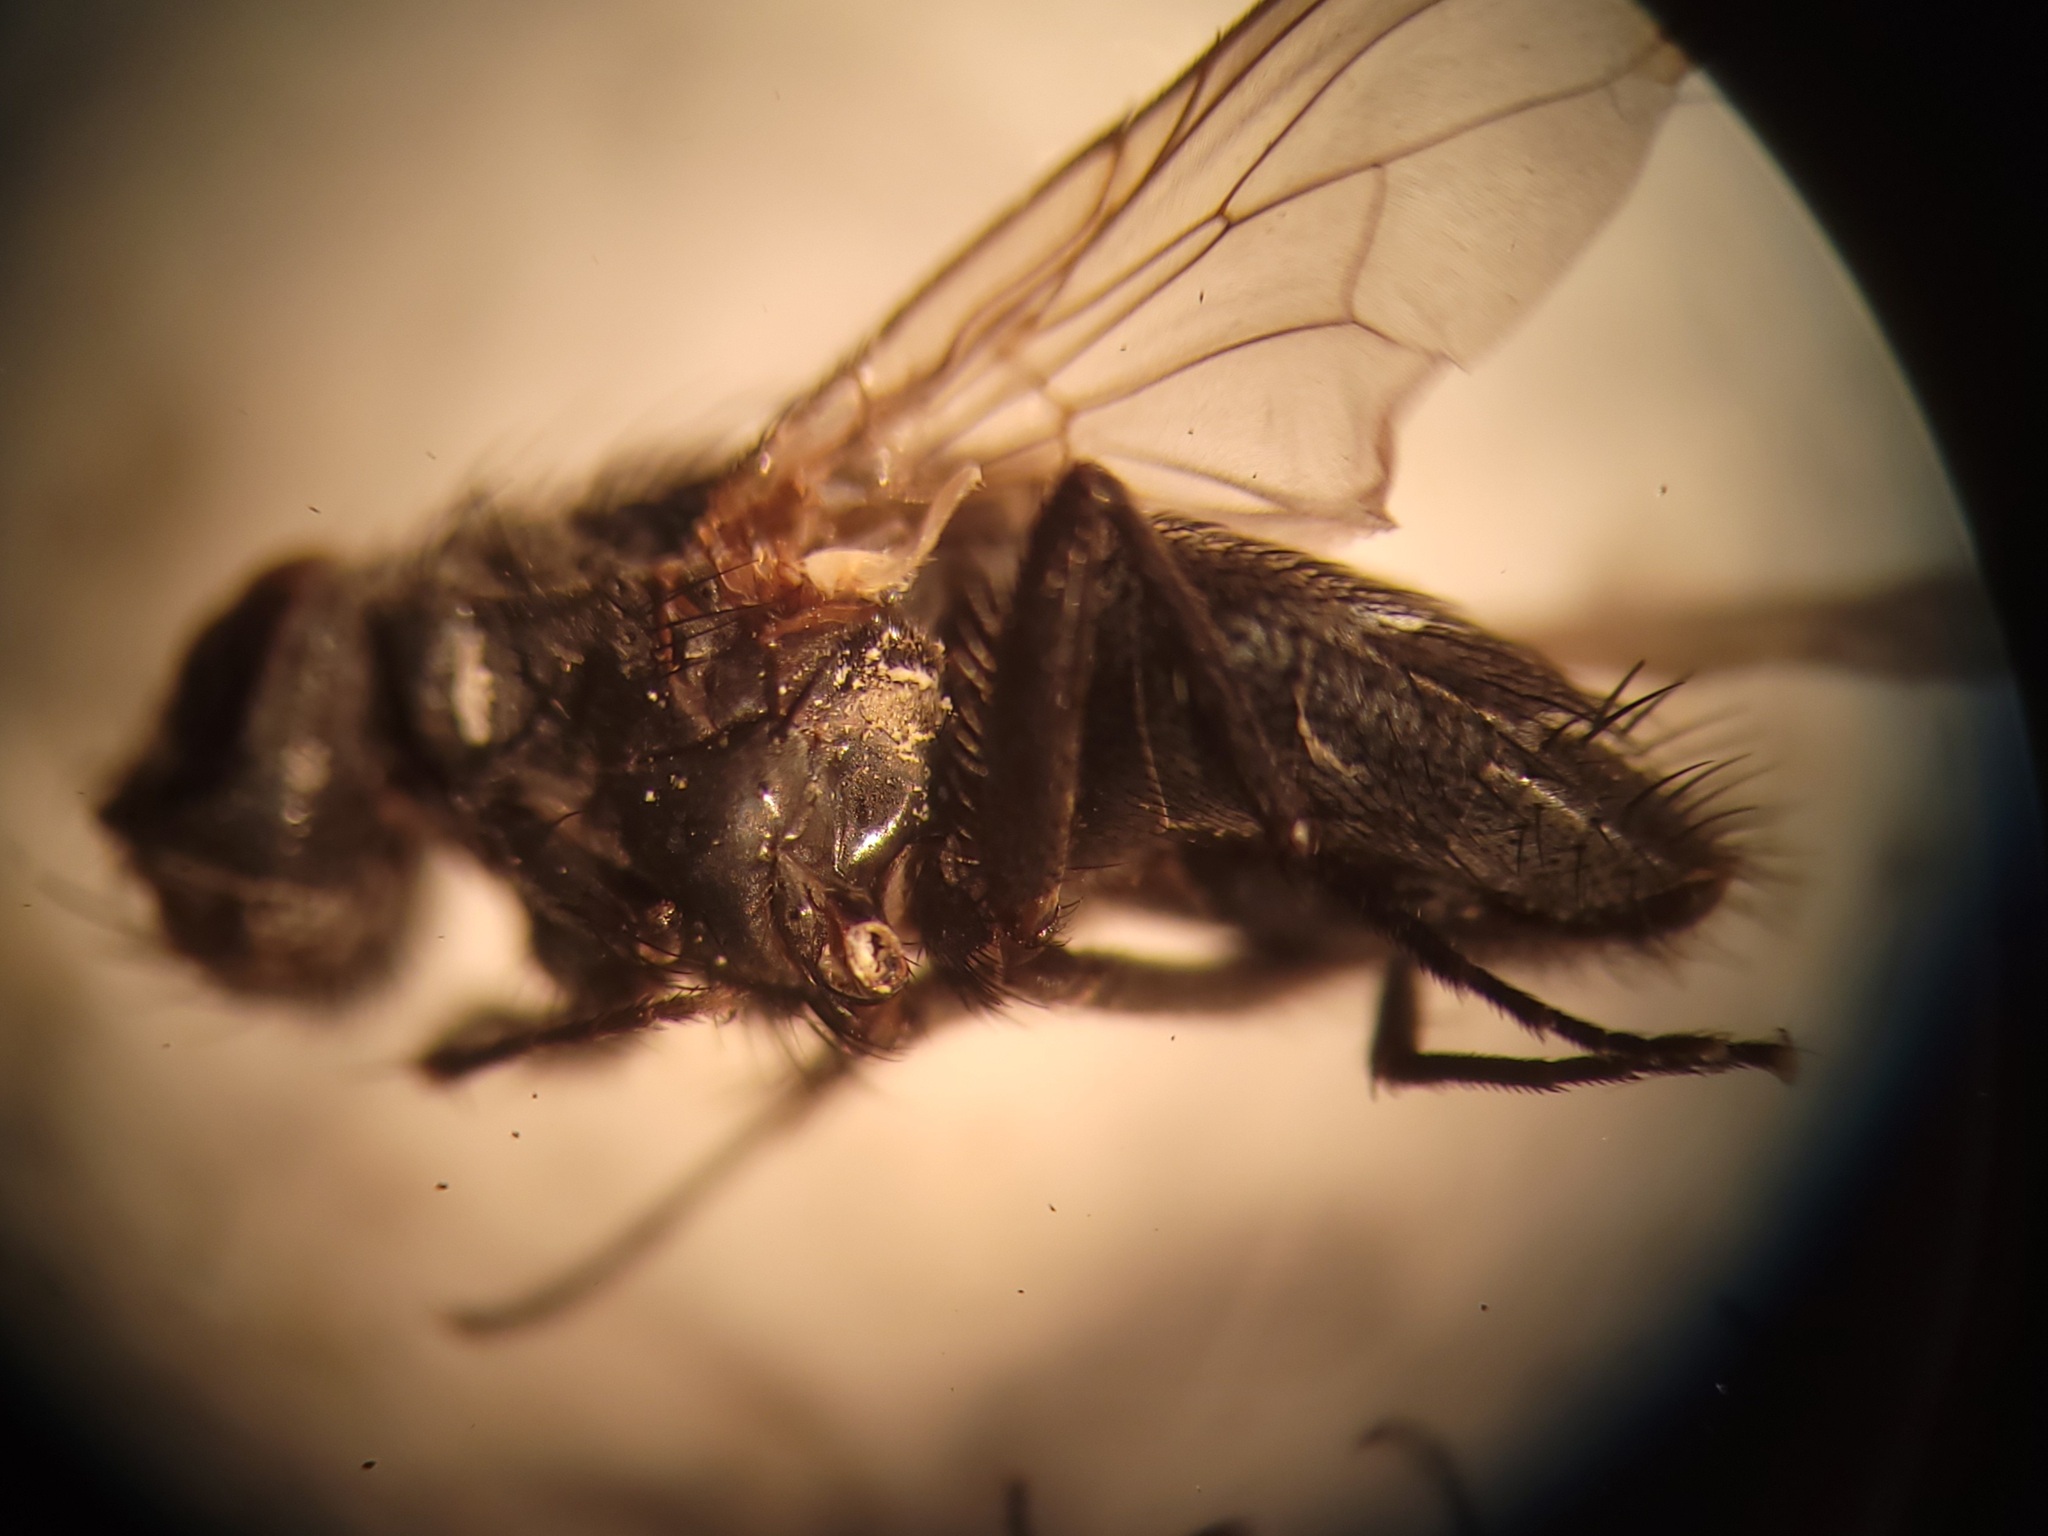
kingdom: Animalia
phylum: Arthropoda
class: Insecta
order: Diptera
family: Muscidae
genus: Muscina
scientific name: Muscina levida
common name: House fly
